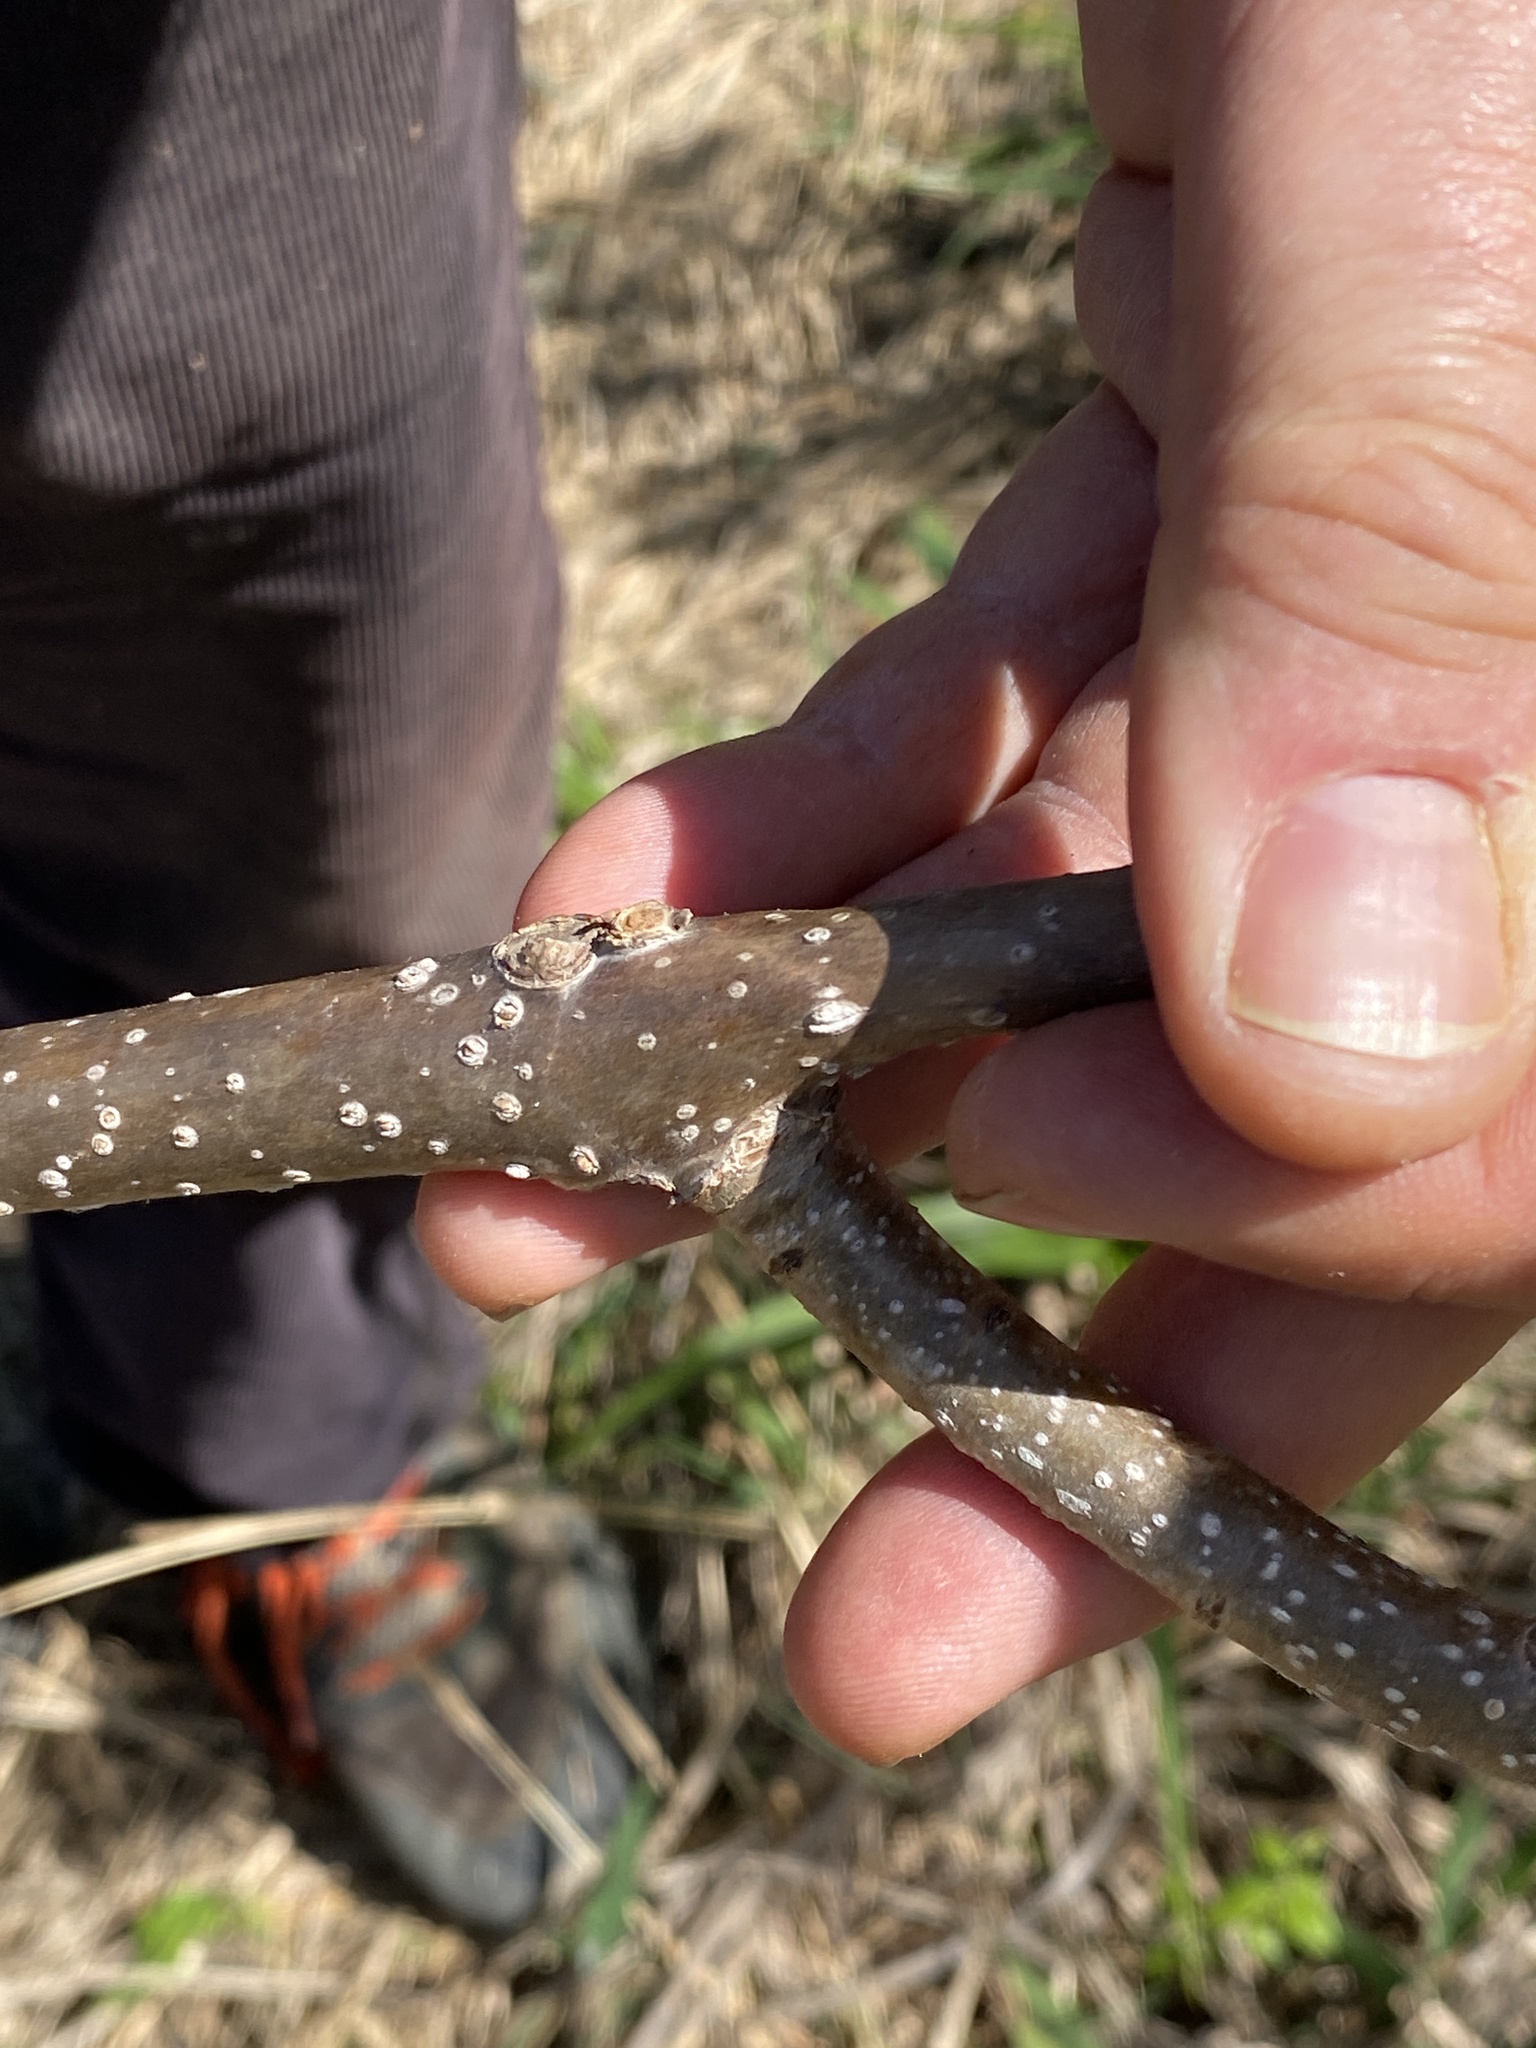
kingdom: Plantae
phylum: Tracheophyta
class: Magnoliopsida
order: Lamiales
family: Paulowniaceae
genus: Paulownia
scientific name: Paulownia tomentosa
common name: Foxglove-tree
